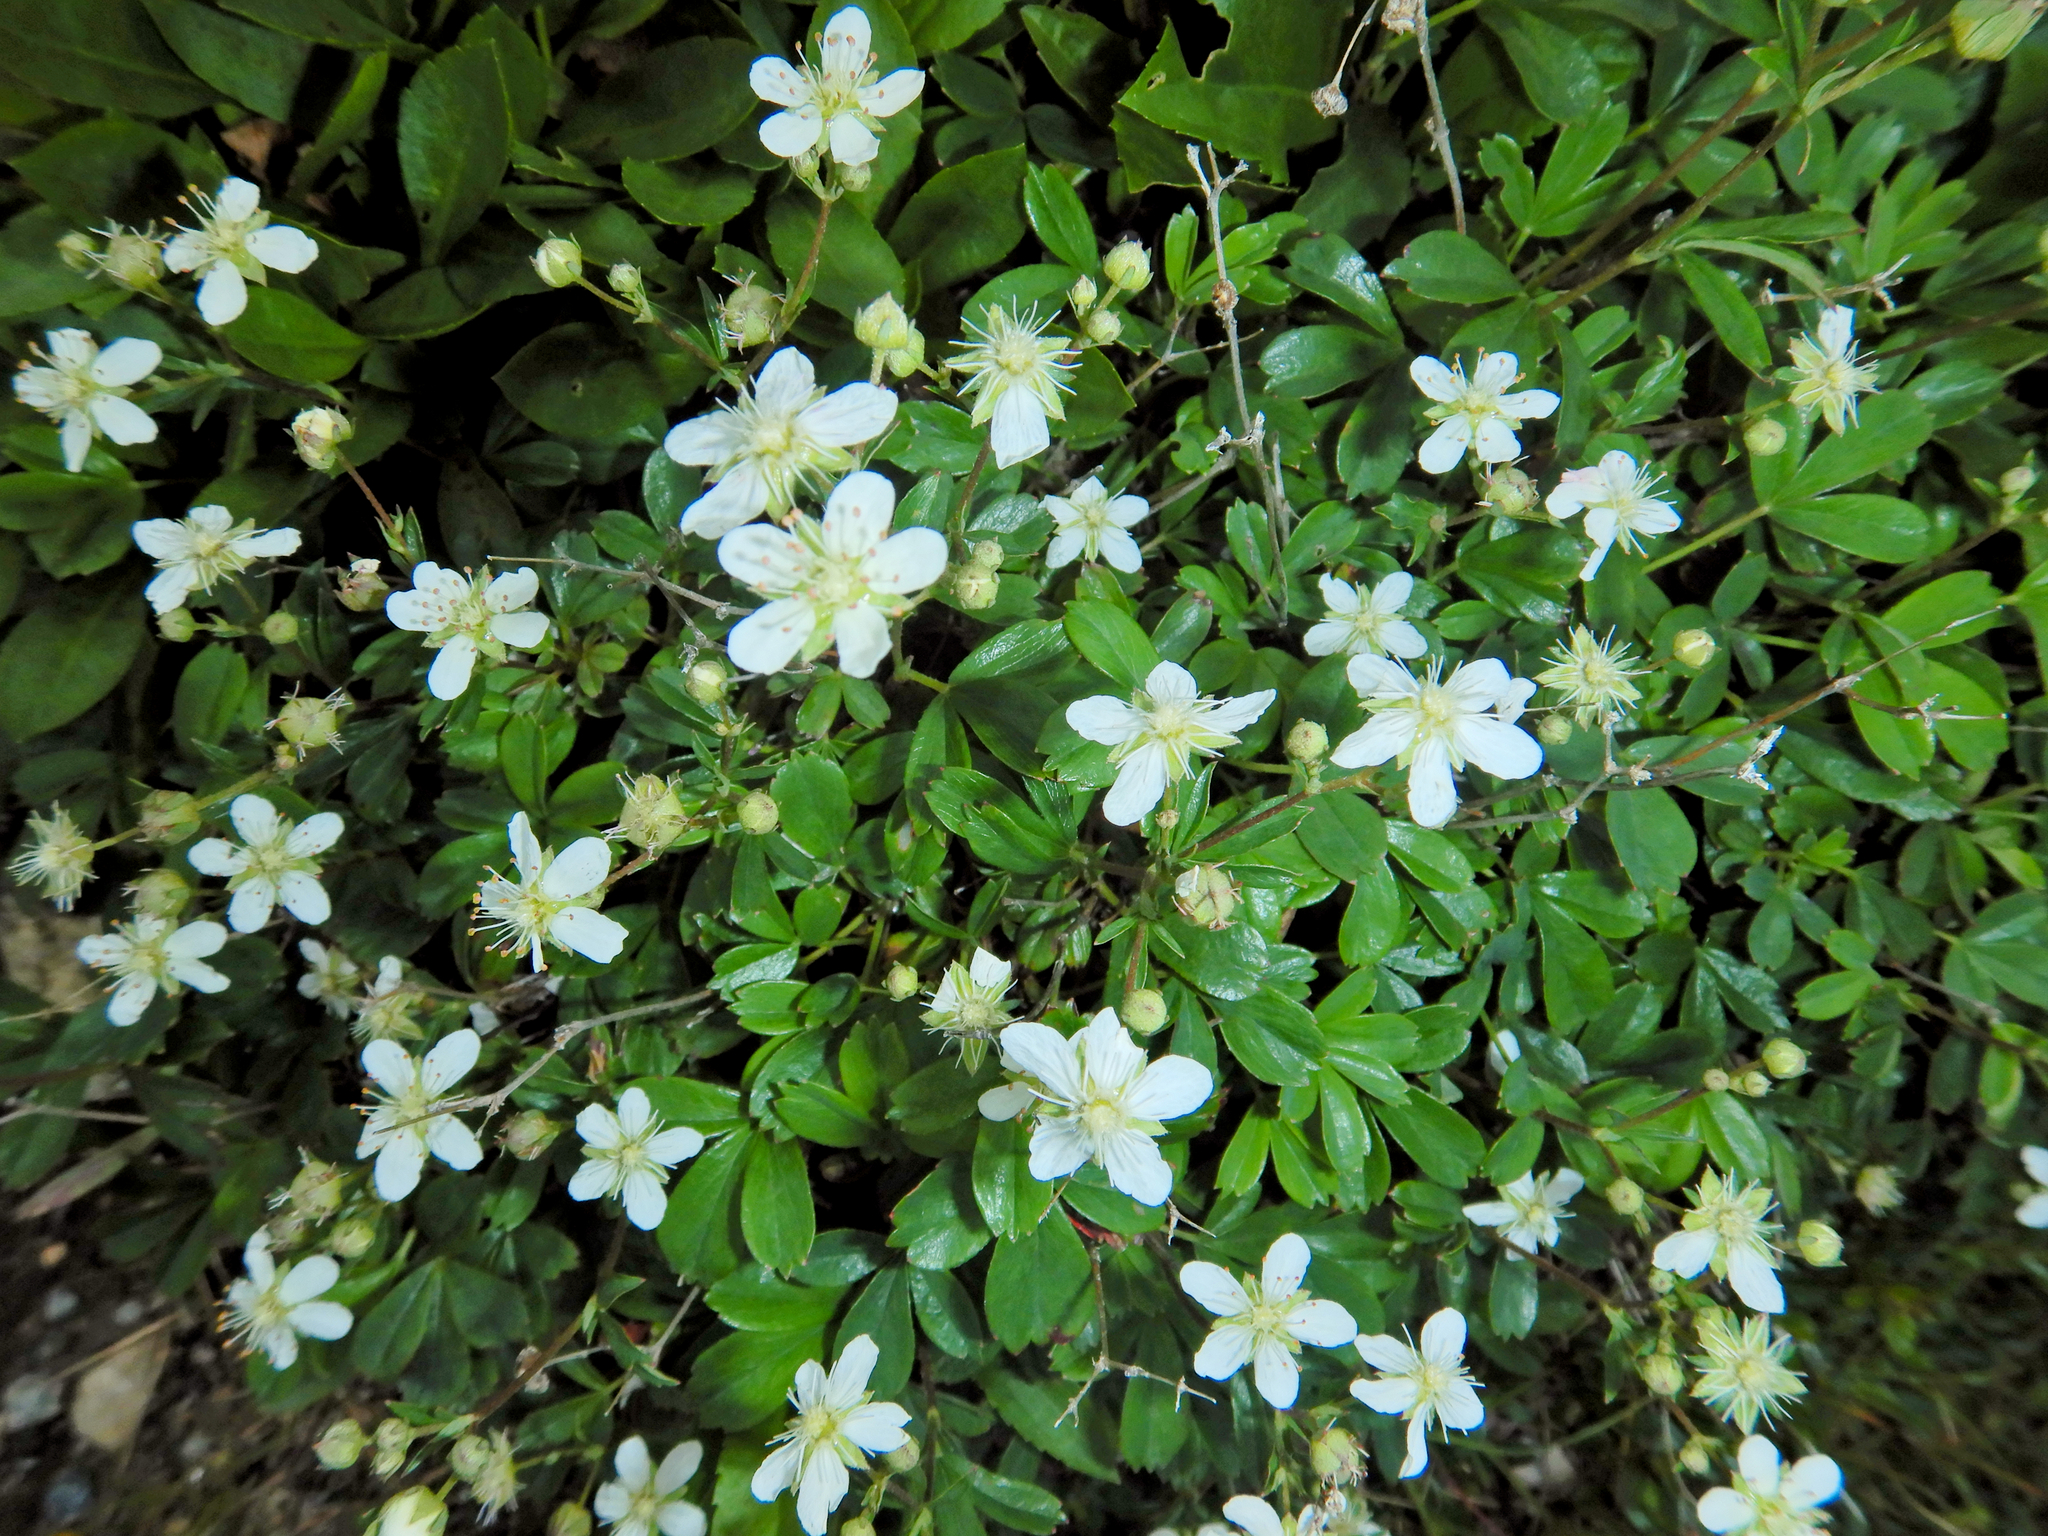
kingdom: Plantae
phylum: Tracheophyta
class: Magnoliopsida
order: Rosales
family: Rosaceae
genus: Sibbaldia
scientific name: Sibbaldia tridentata
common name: Three-toothed cinquefoil
